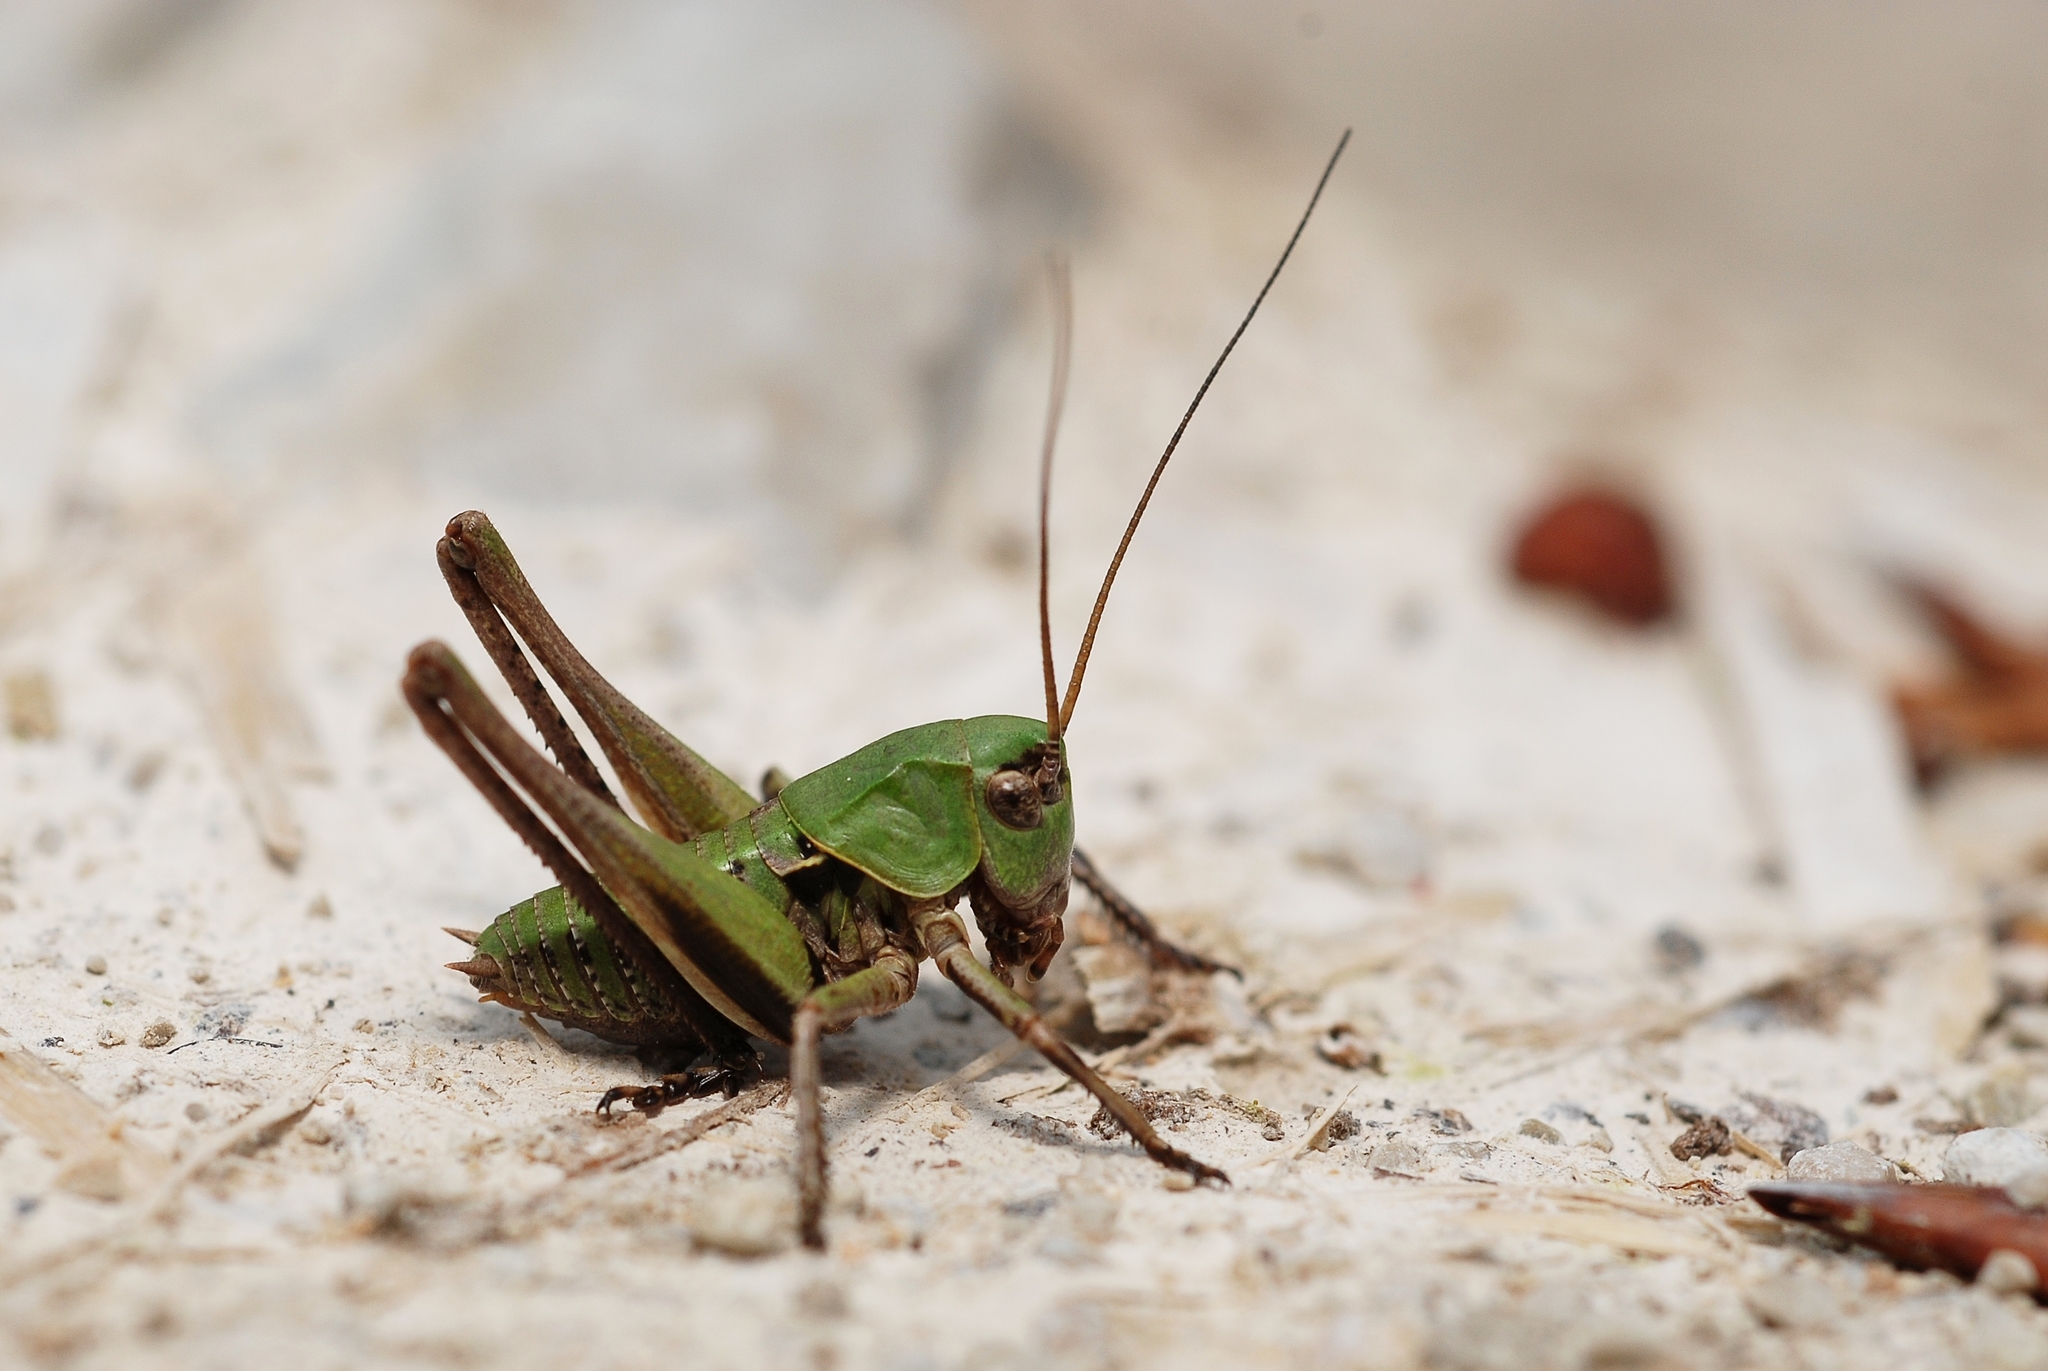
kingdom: Animalia
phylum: Arthropoda
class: Insecta
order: Orthoptera
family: Tettigoniidae
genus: Decticus
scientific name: Decticus verrucivorus
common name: Wart-biter
